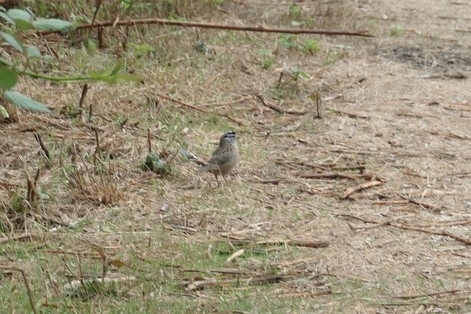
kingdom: Animalia
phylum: Chordata
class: Aves
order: Passeriformes
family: Passerellidae
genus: Zonotrichia
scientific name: Zonotrichia leucophrys
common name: White-crowned sparrow
